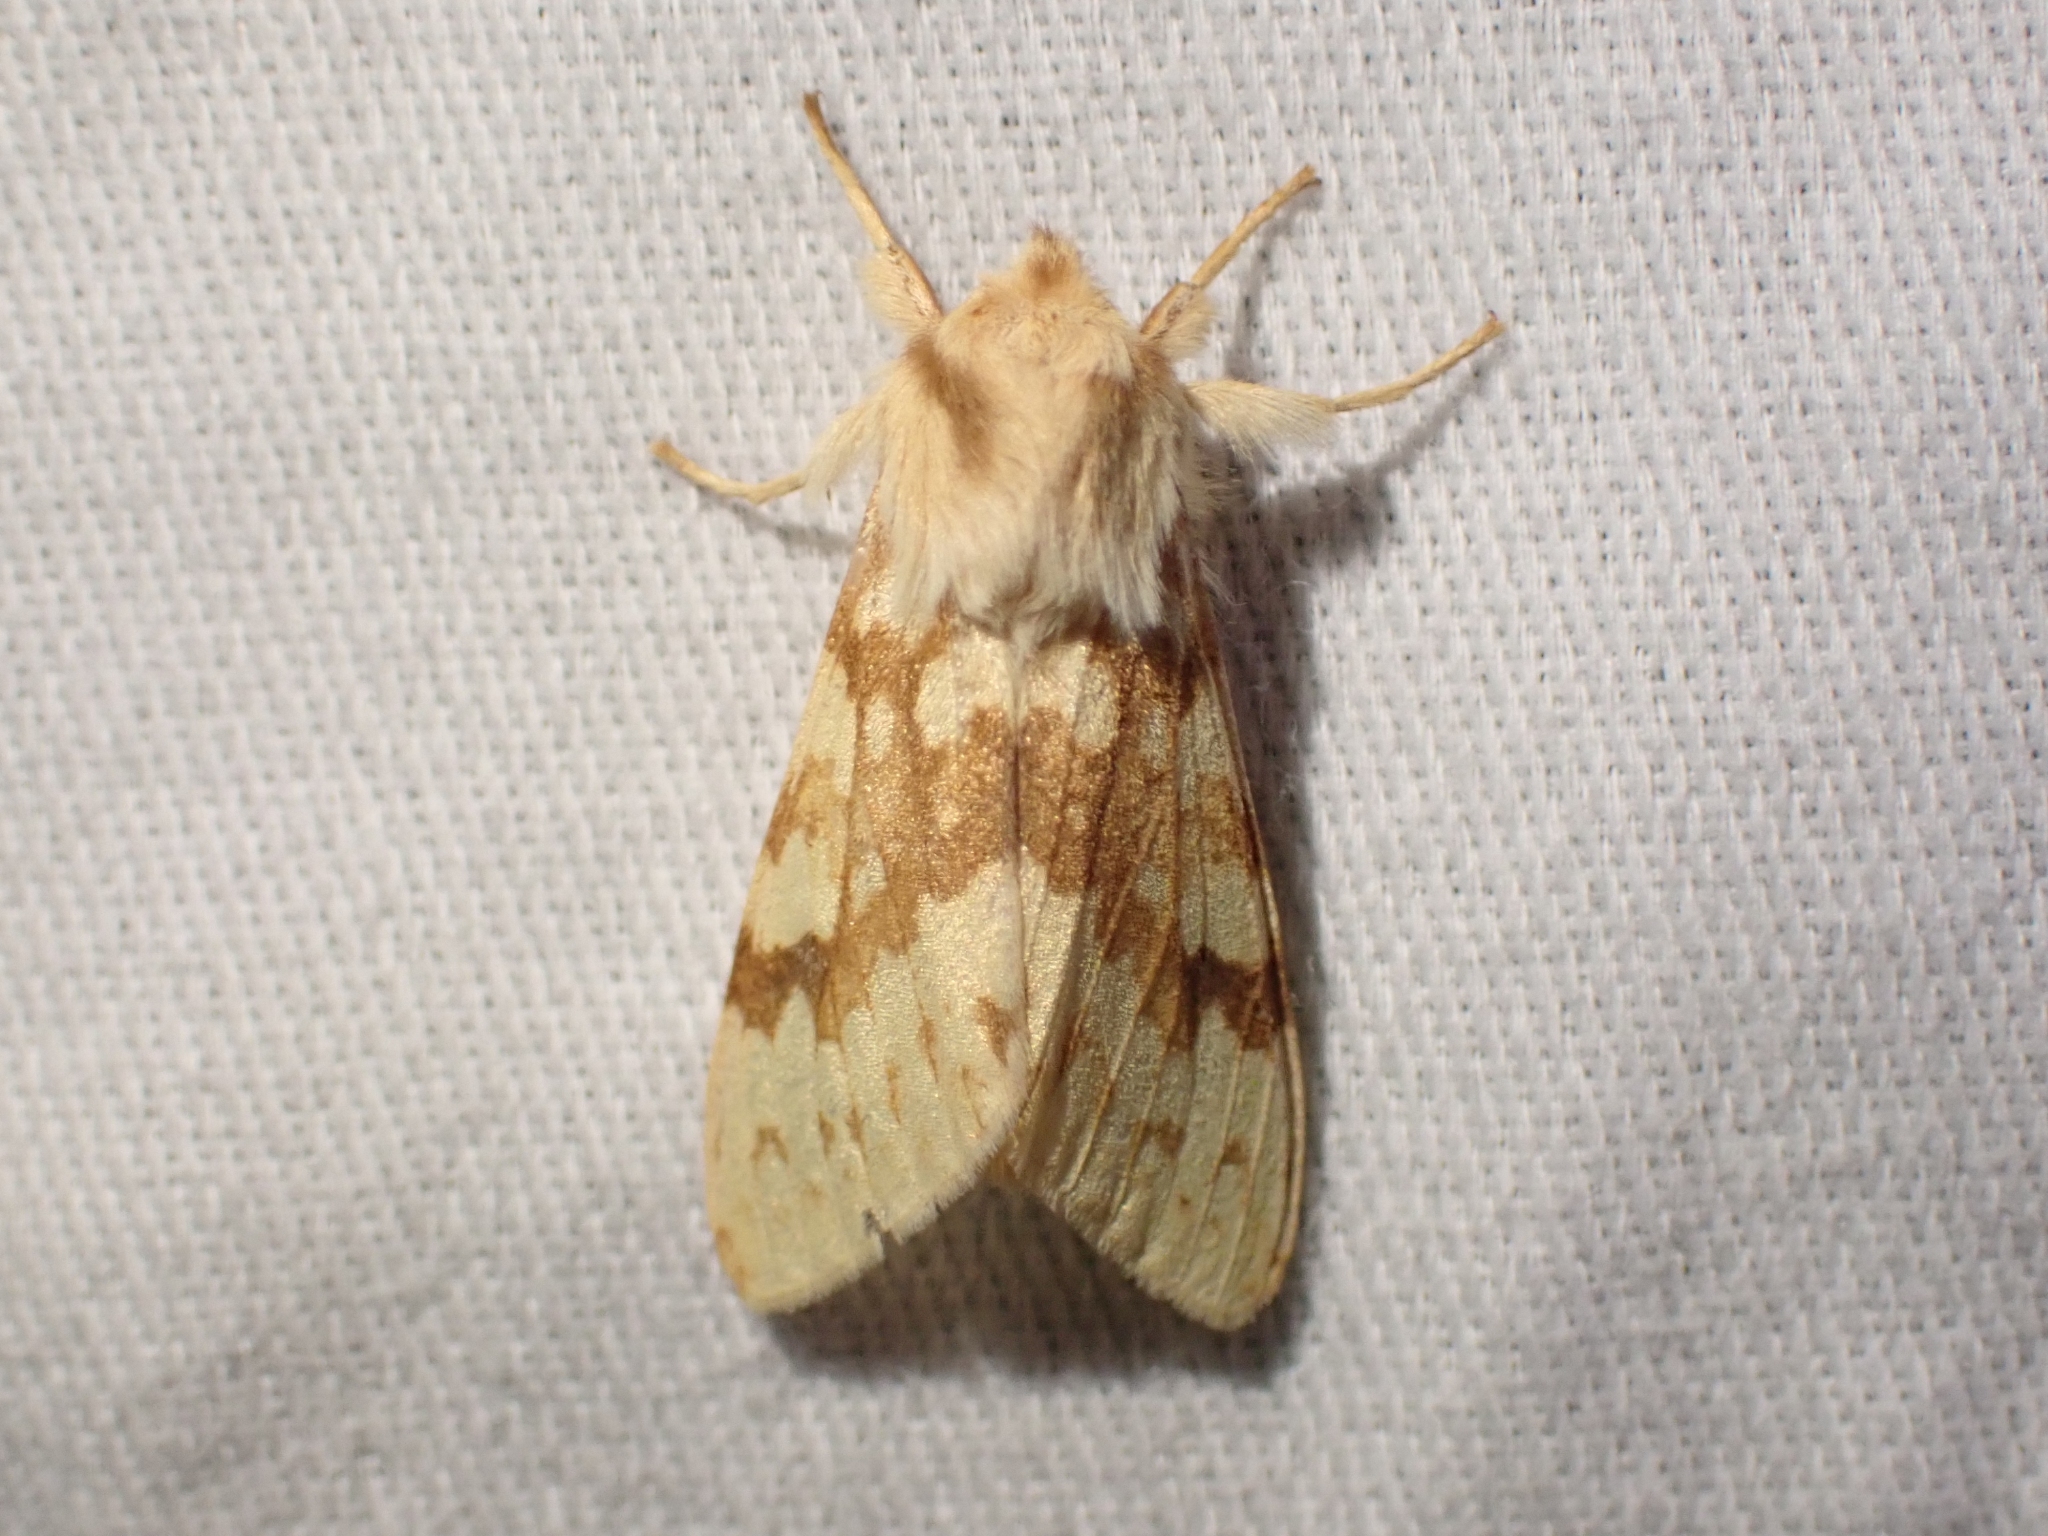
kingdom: Animalia
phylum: Arthropoda
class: Insecta
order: Lepidoptera
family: Erebidae
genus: Lophocampa
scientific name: Lophocampa maculata
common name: Spotted tussock moth
